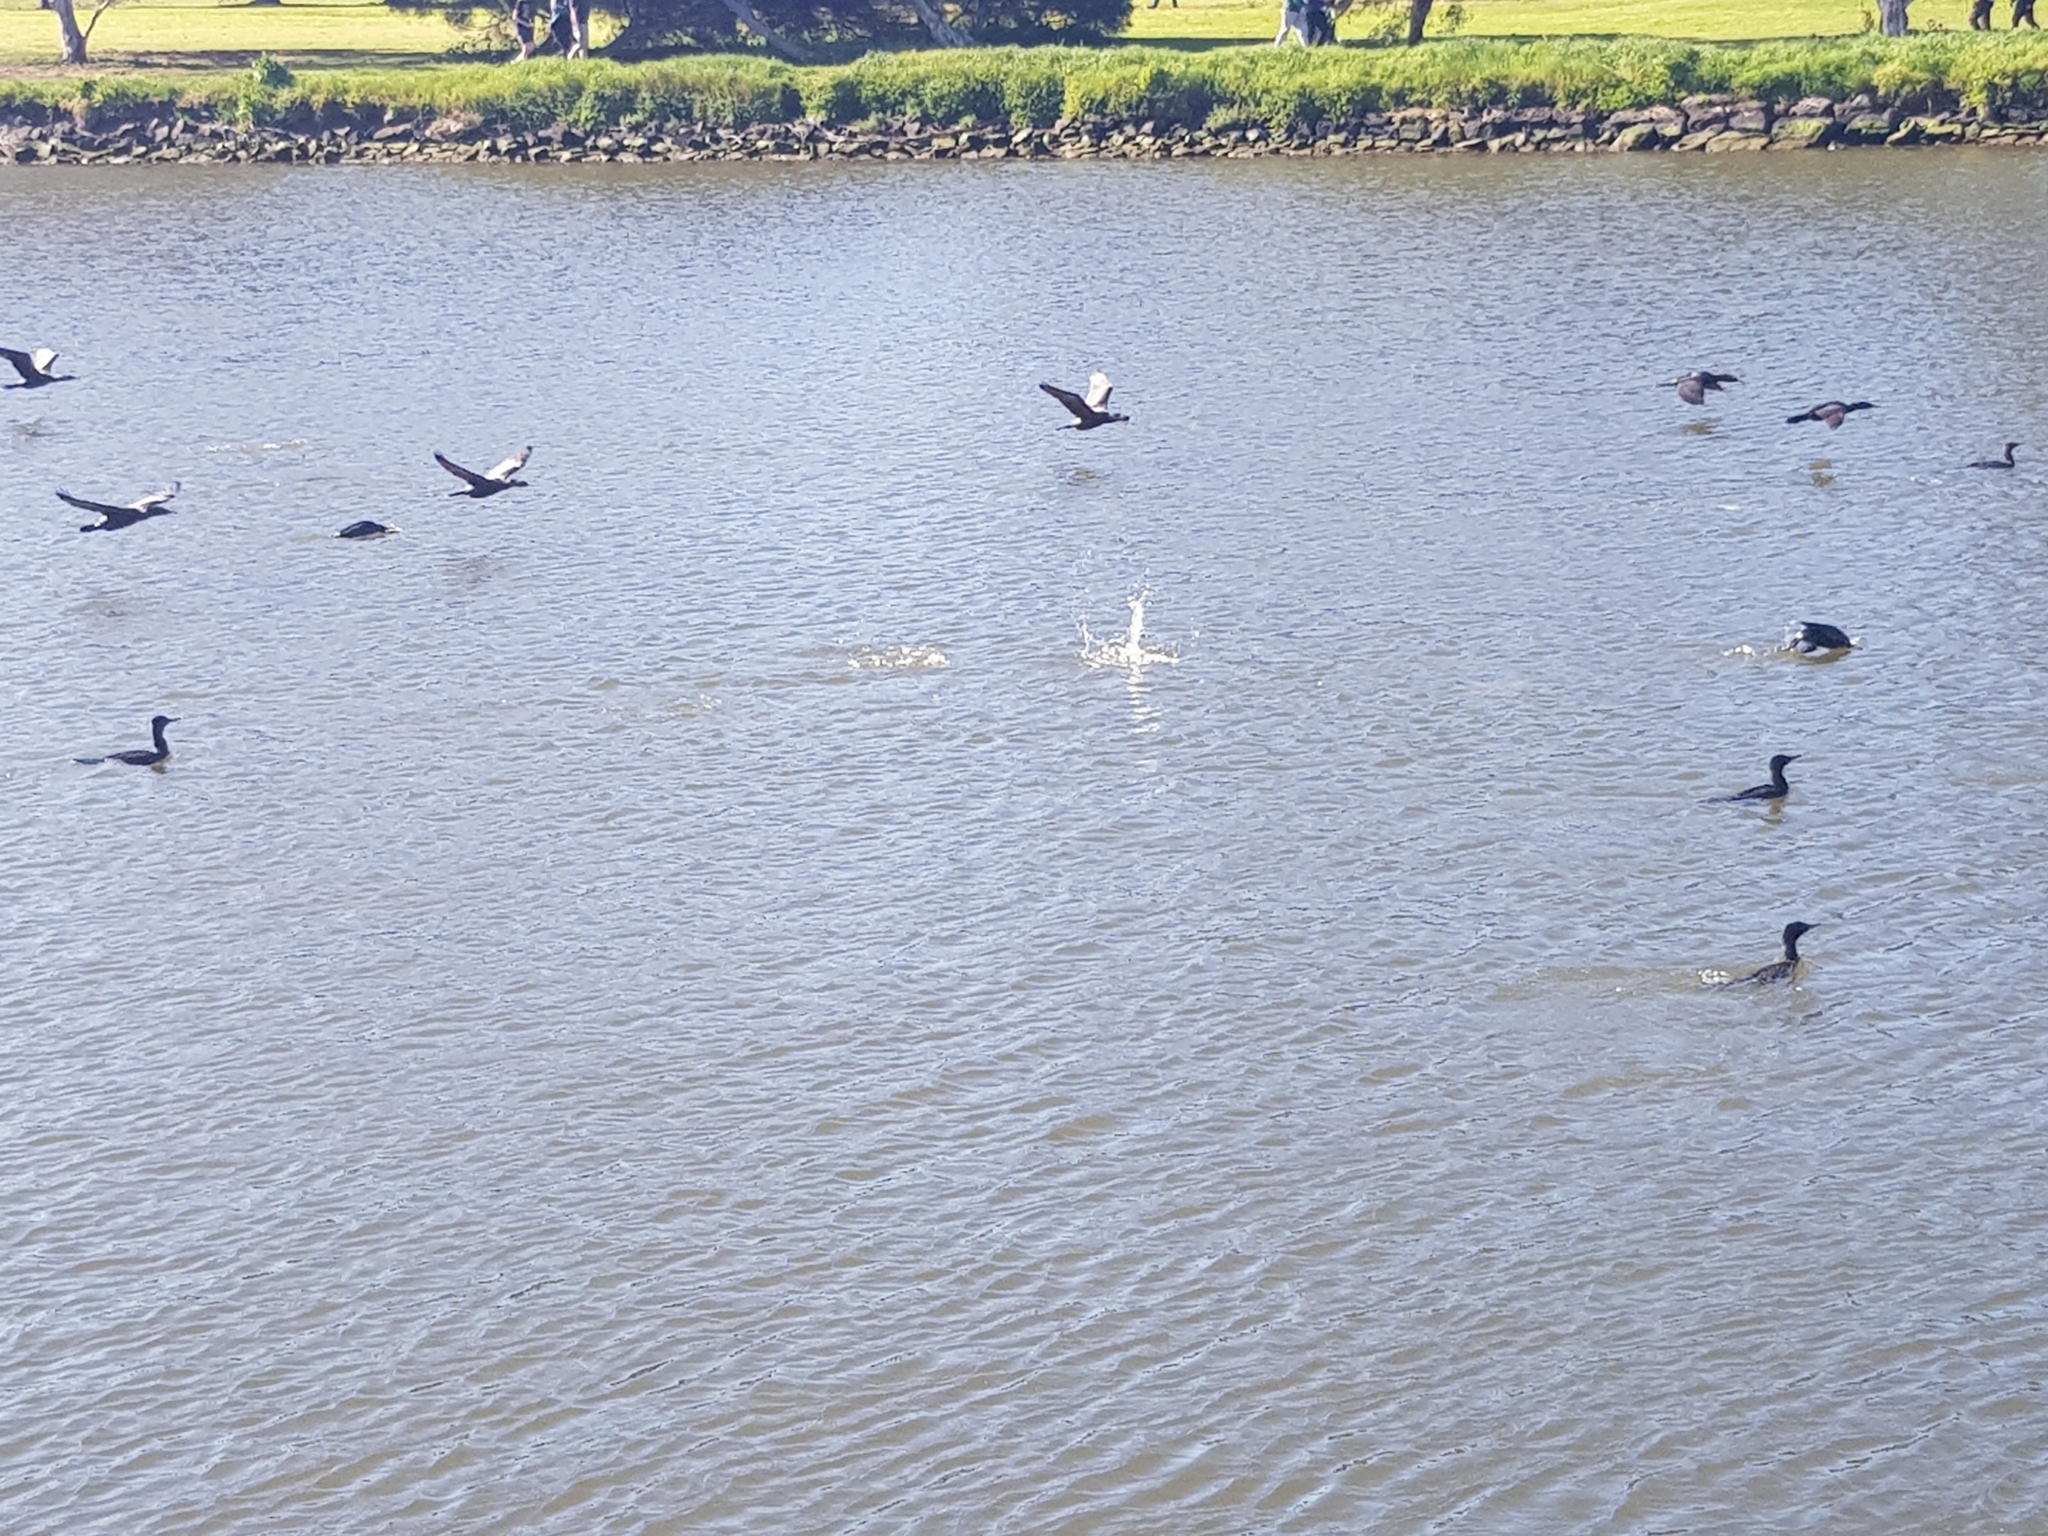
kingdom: Animalia
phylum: Chordata
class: Aves
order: Suliformes
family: Phalacrocoracidae
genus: Phalacrocorax
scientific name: Phalacrocorax sulcirostris
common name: Little black cormorant
